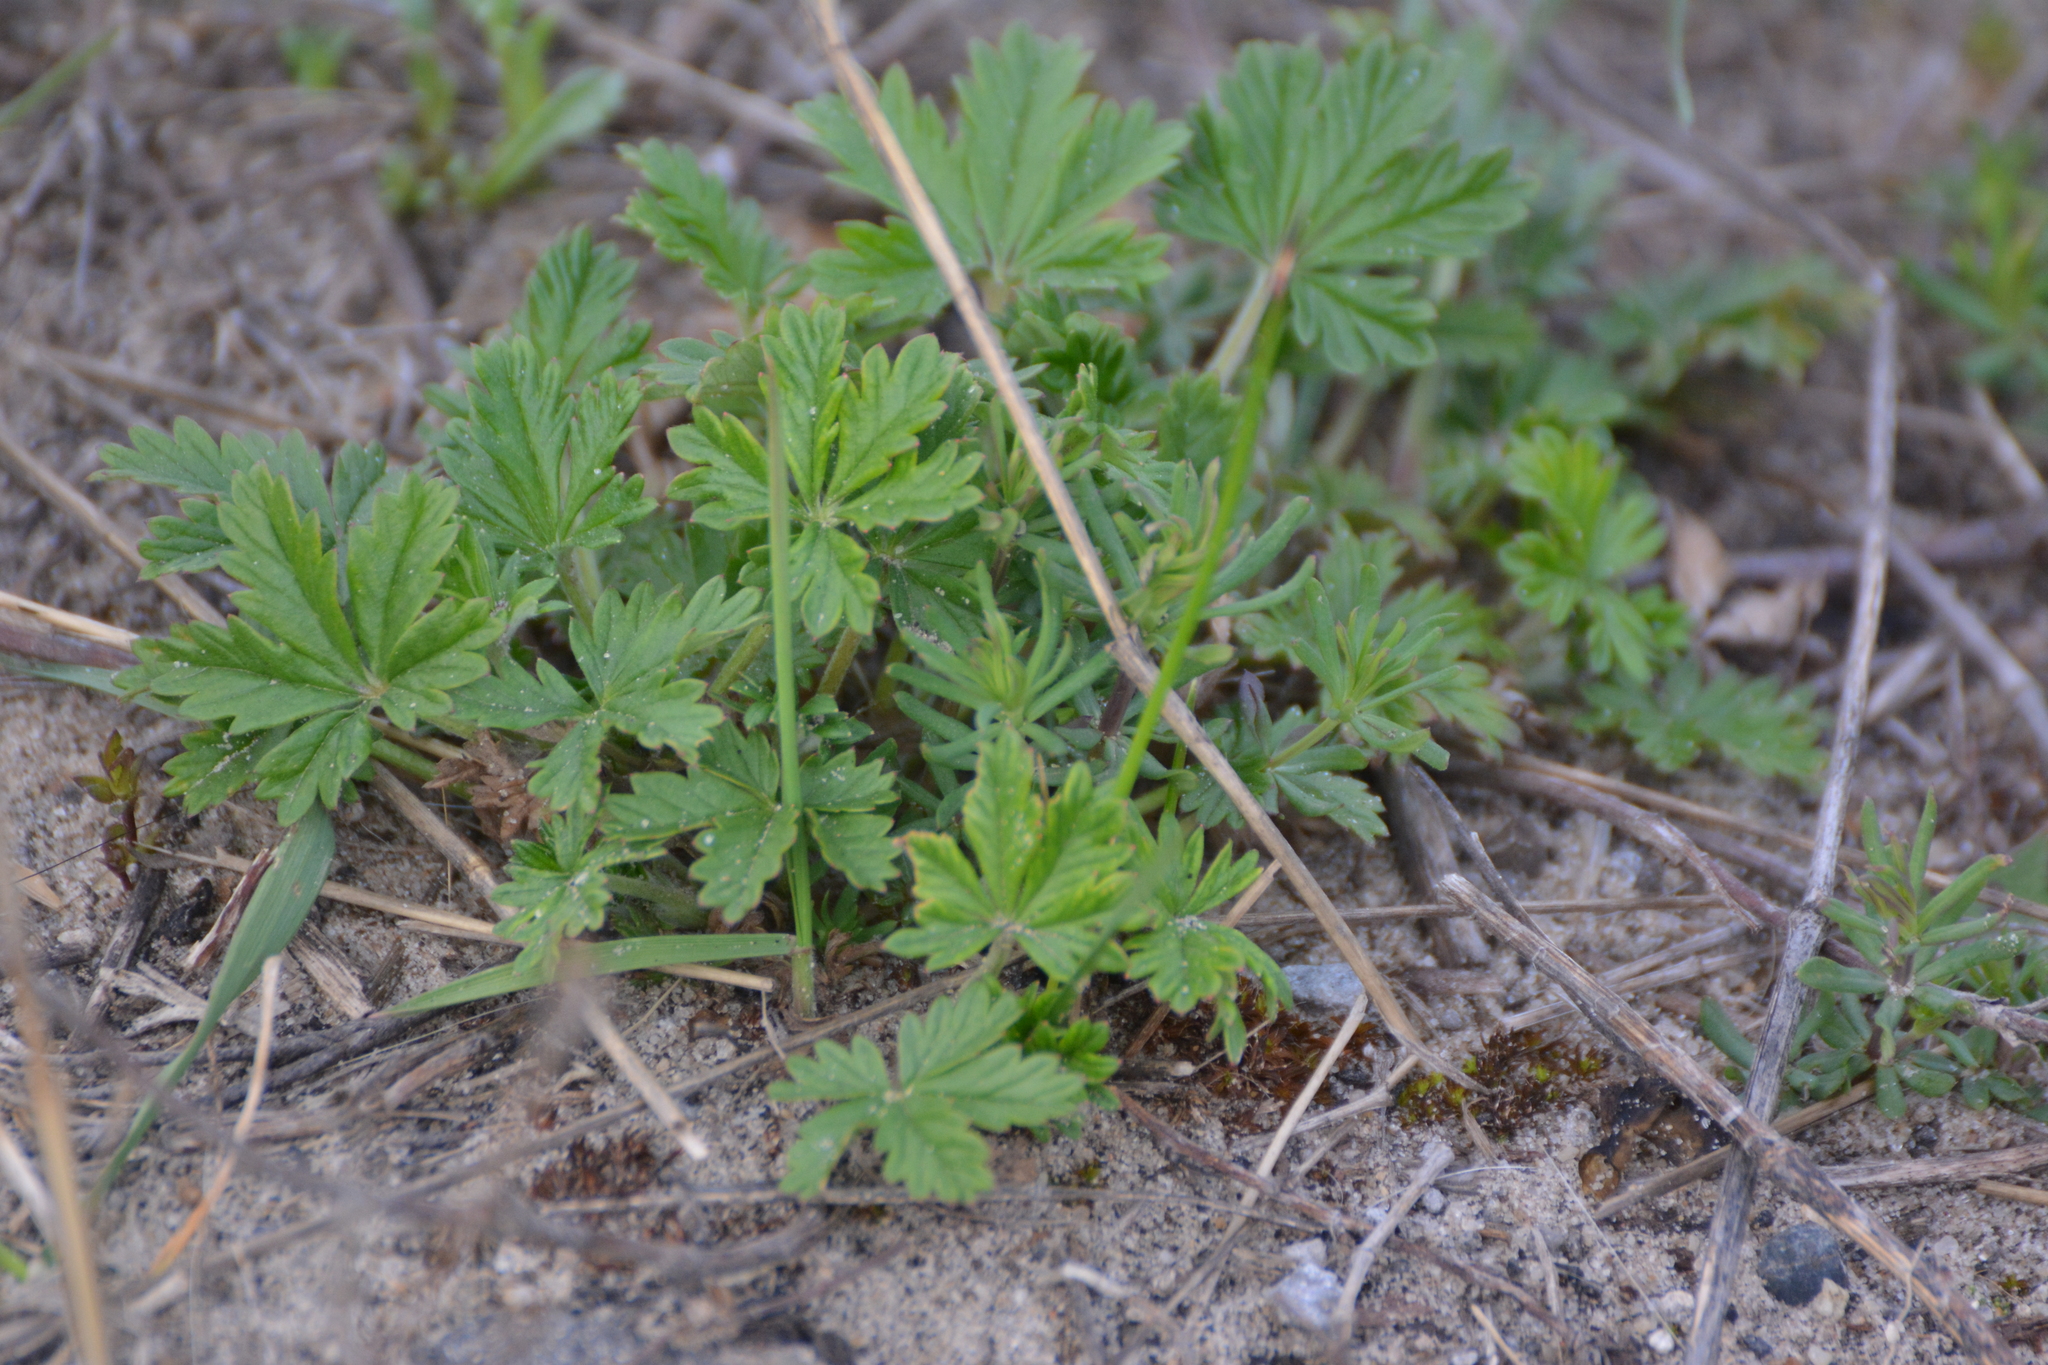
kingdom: Plantae
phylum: Tracheophyta
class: Magnoliopsida
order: Rosales
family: Rosaceae
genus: Potentilla
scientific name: Potentilla argentea
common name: Hoary cinquefoil
